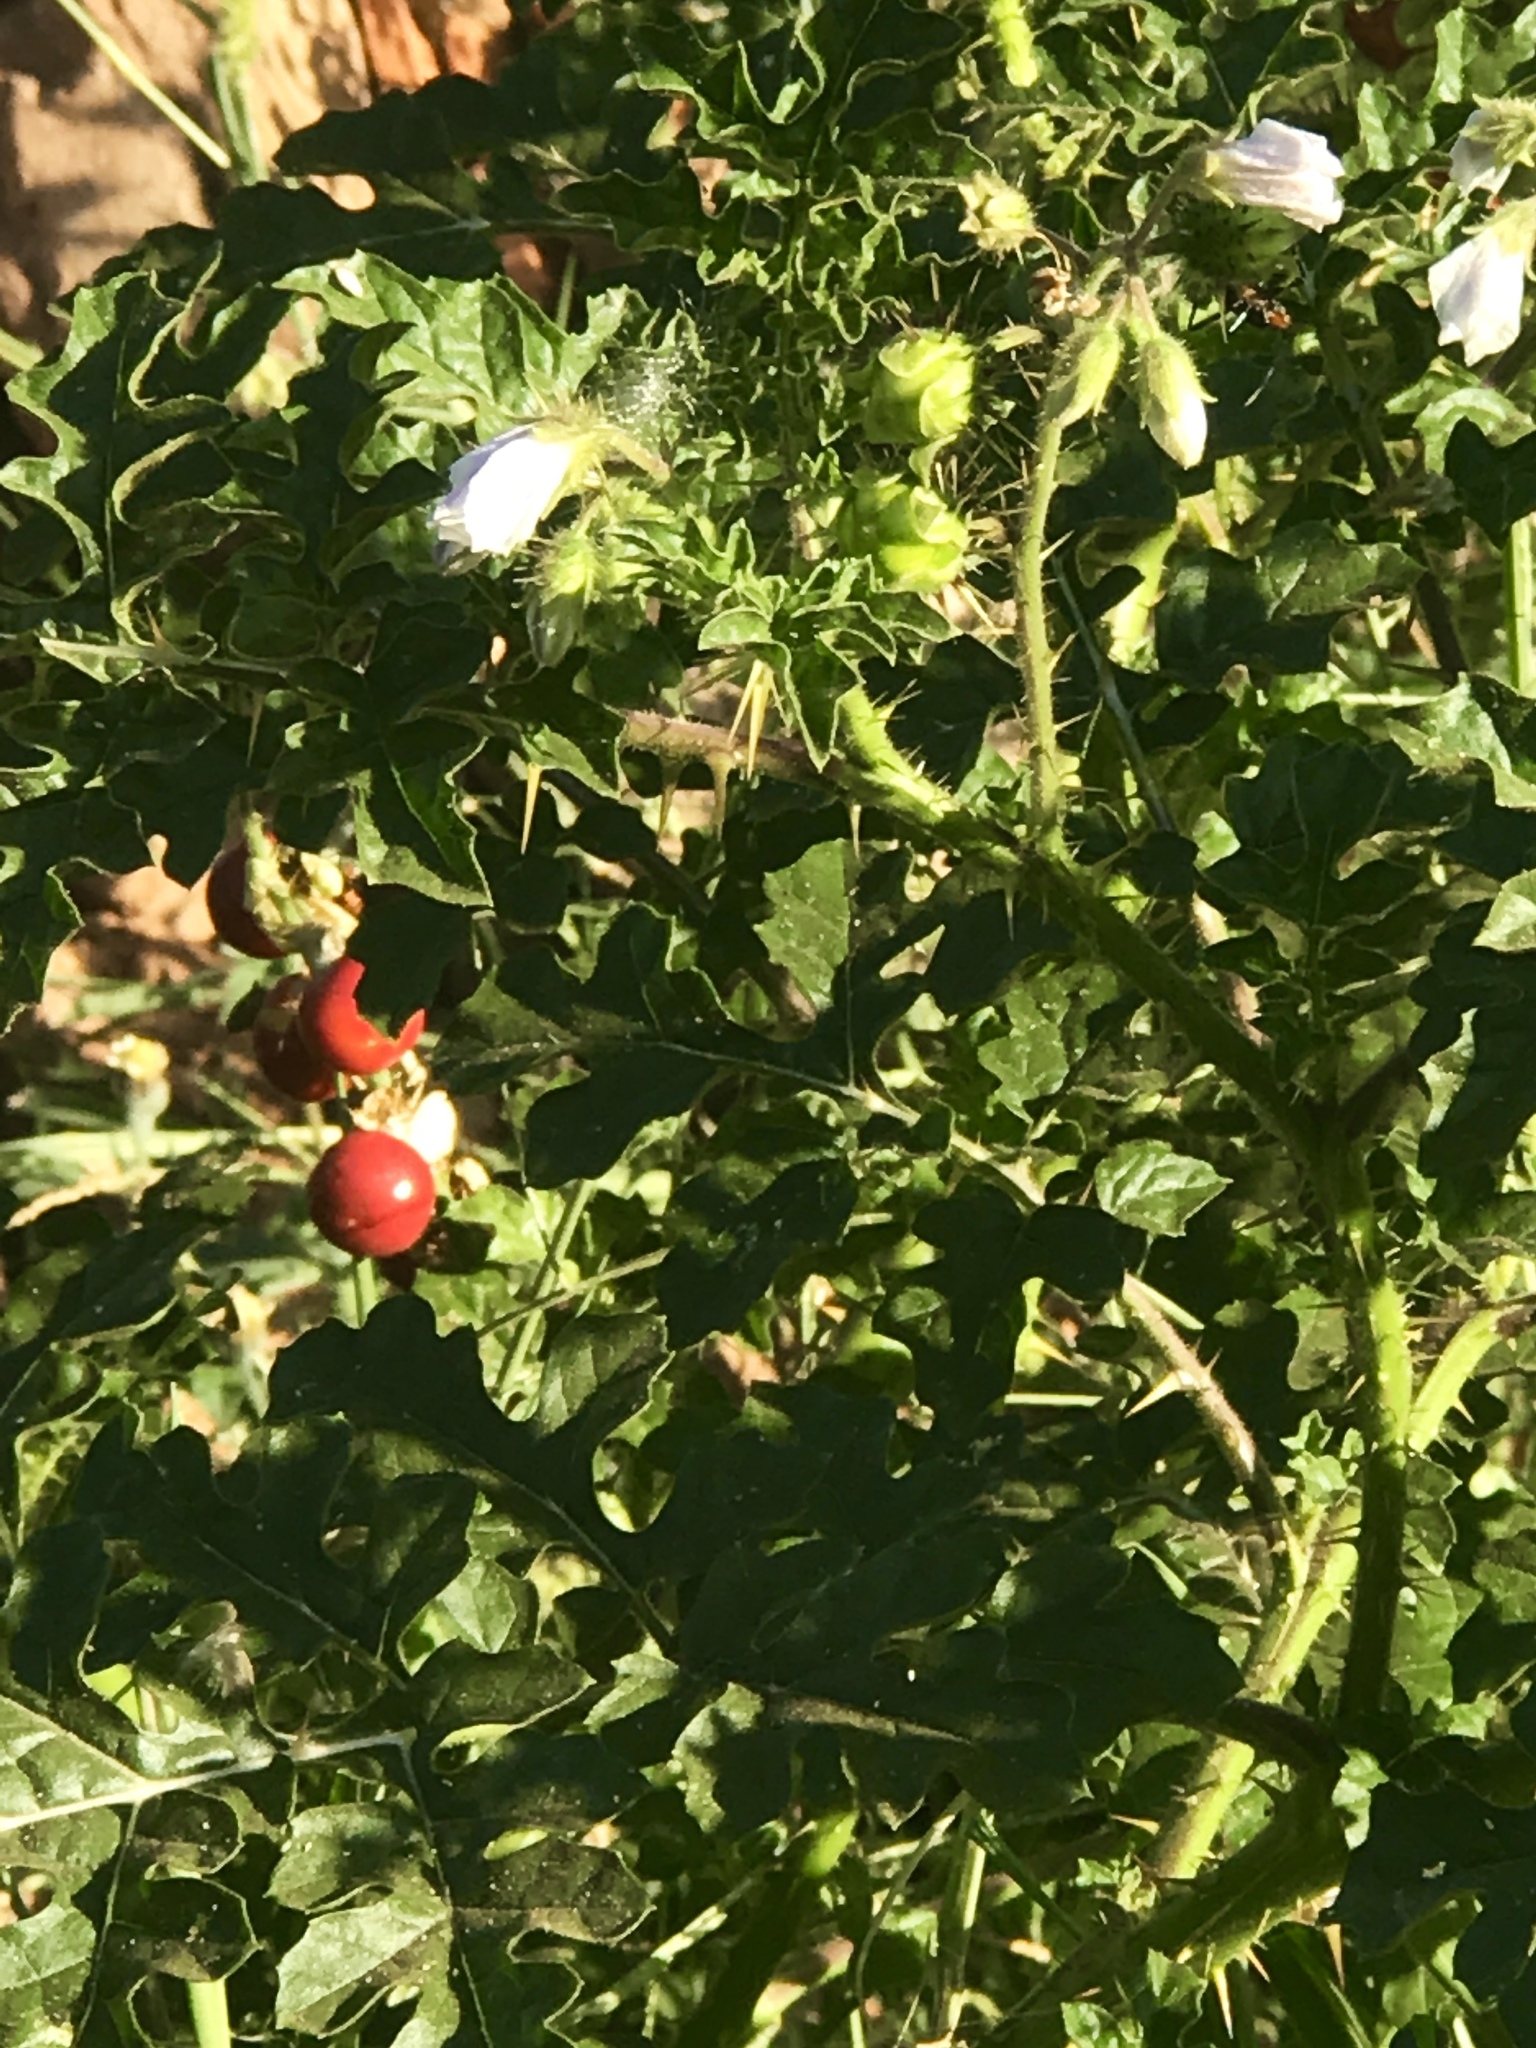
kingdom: Plantae
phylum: Tracheophyta
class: Magnoliopsida
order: Solanales
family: Solanaceae
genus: Solanum
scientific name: Solanum sisymbriifolium
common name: Red buffalo-bur
